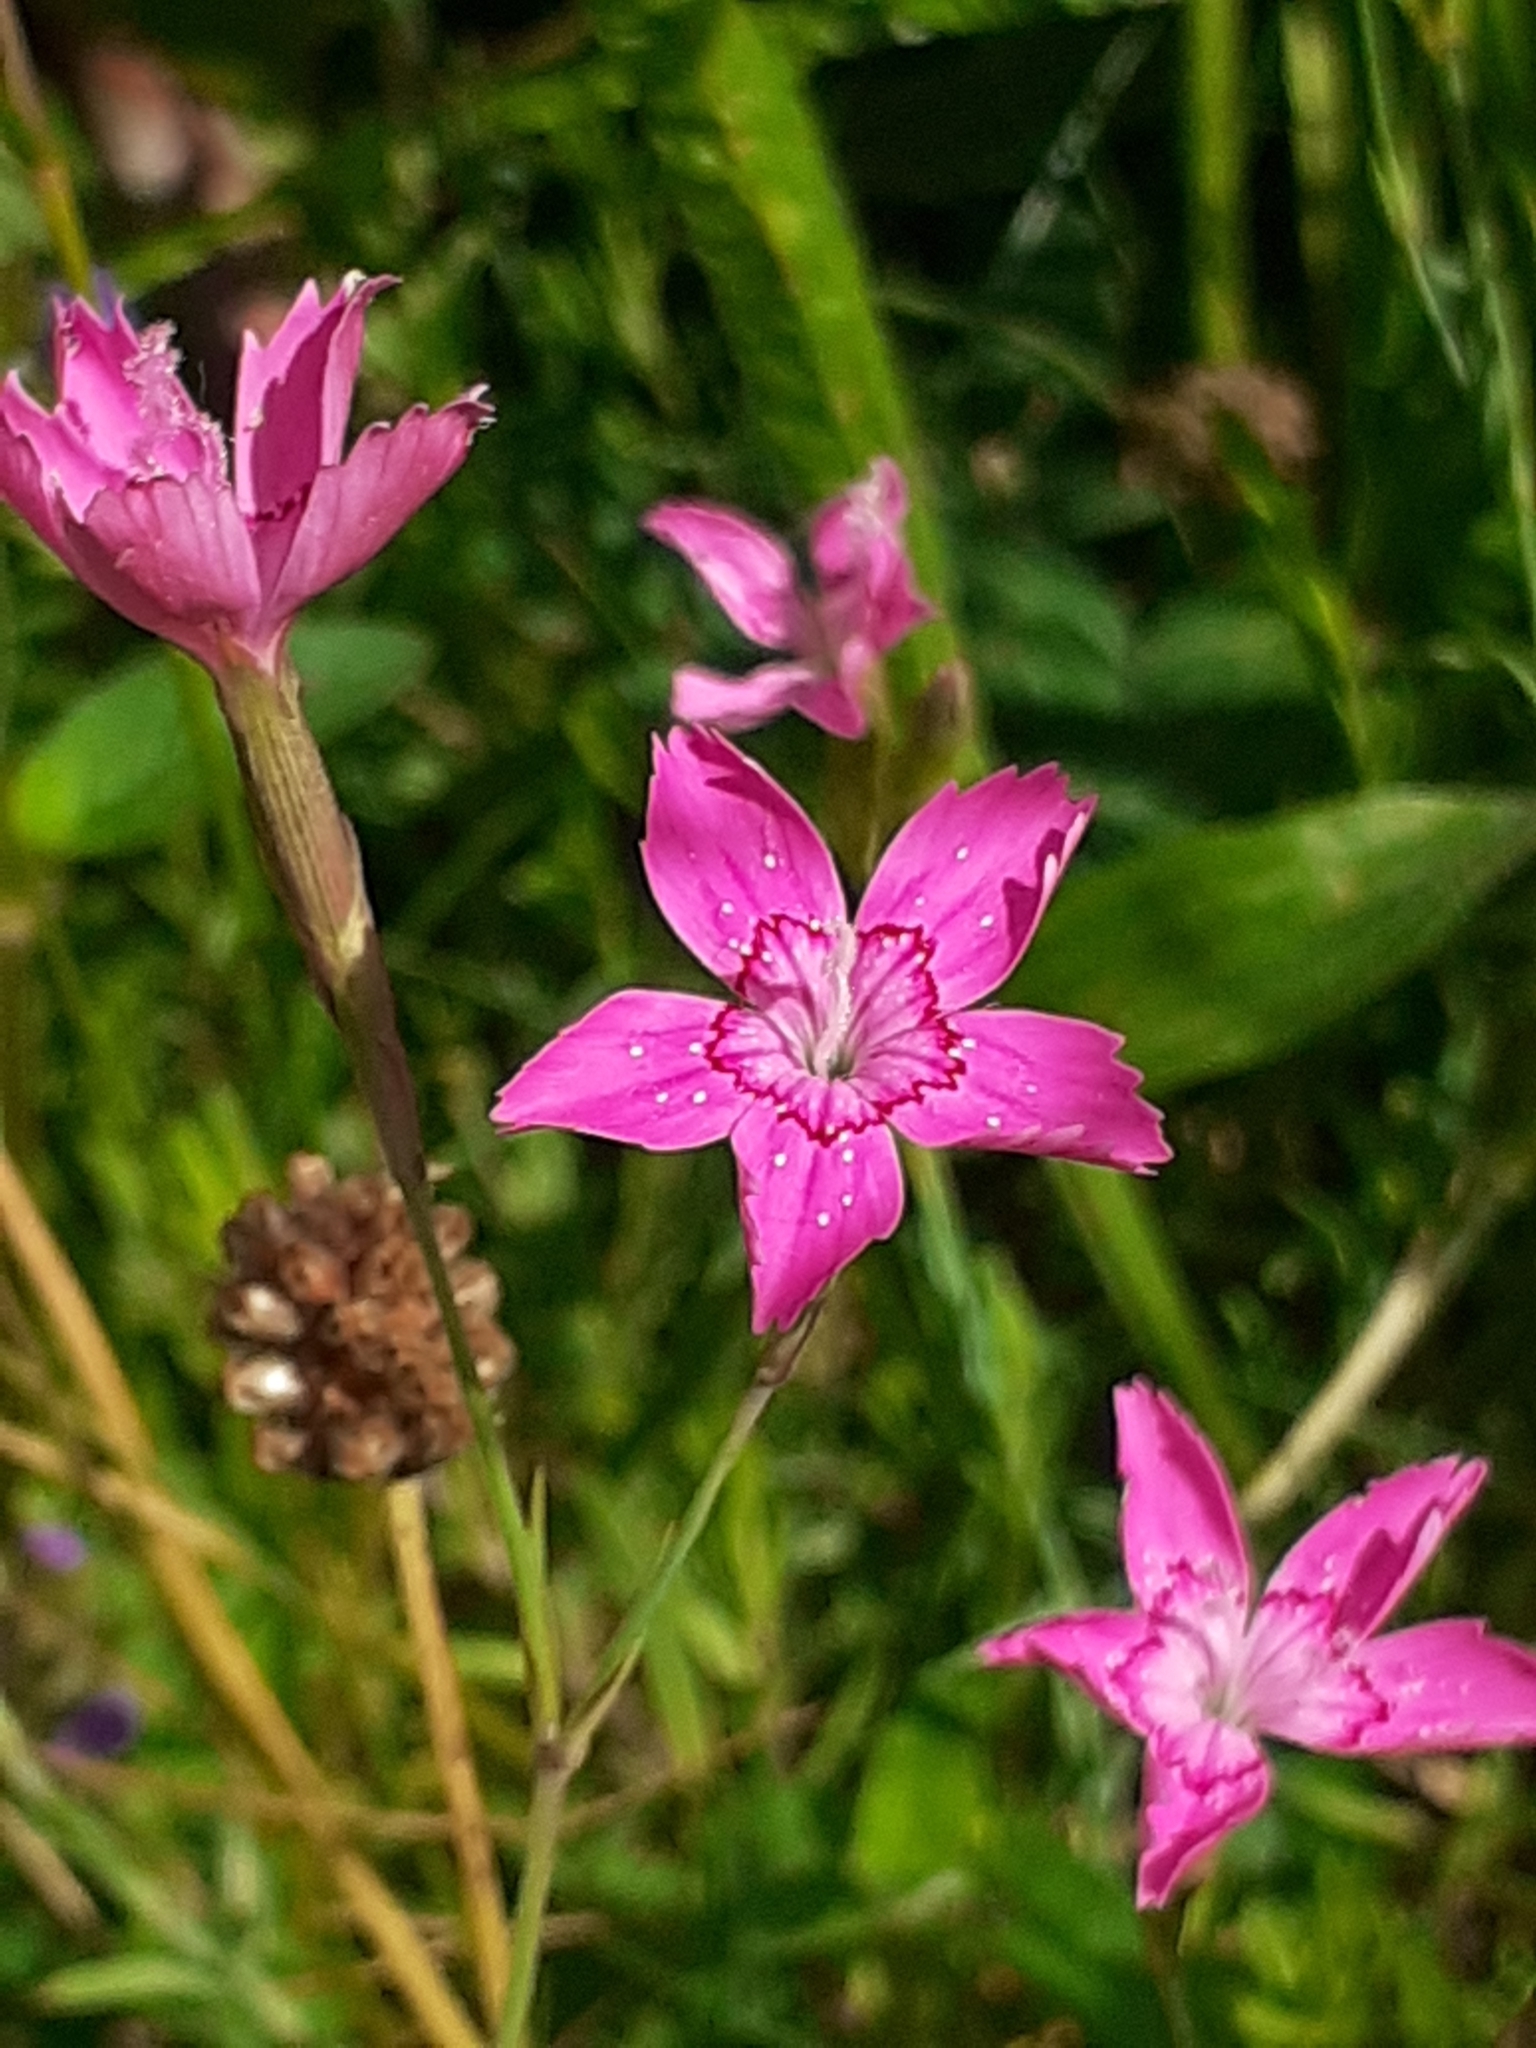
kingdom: Plantae
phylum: Tracheophyta
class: Magnoliopsida
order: Caryophyllales
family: Caryophyllaceae
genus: Dianthus
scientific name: Dianthus deltoides
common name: Maiden pink
